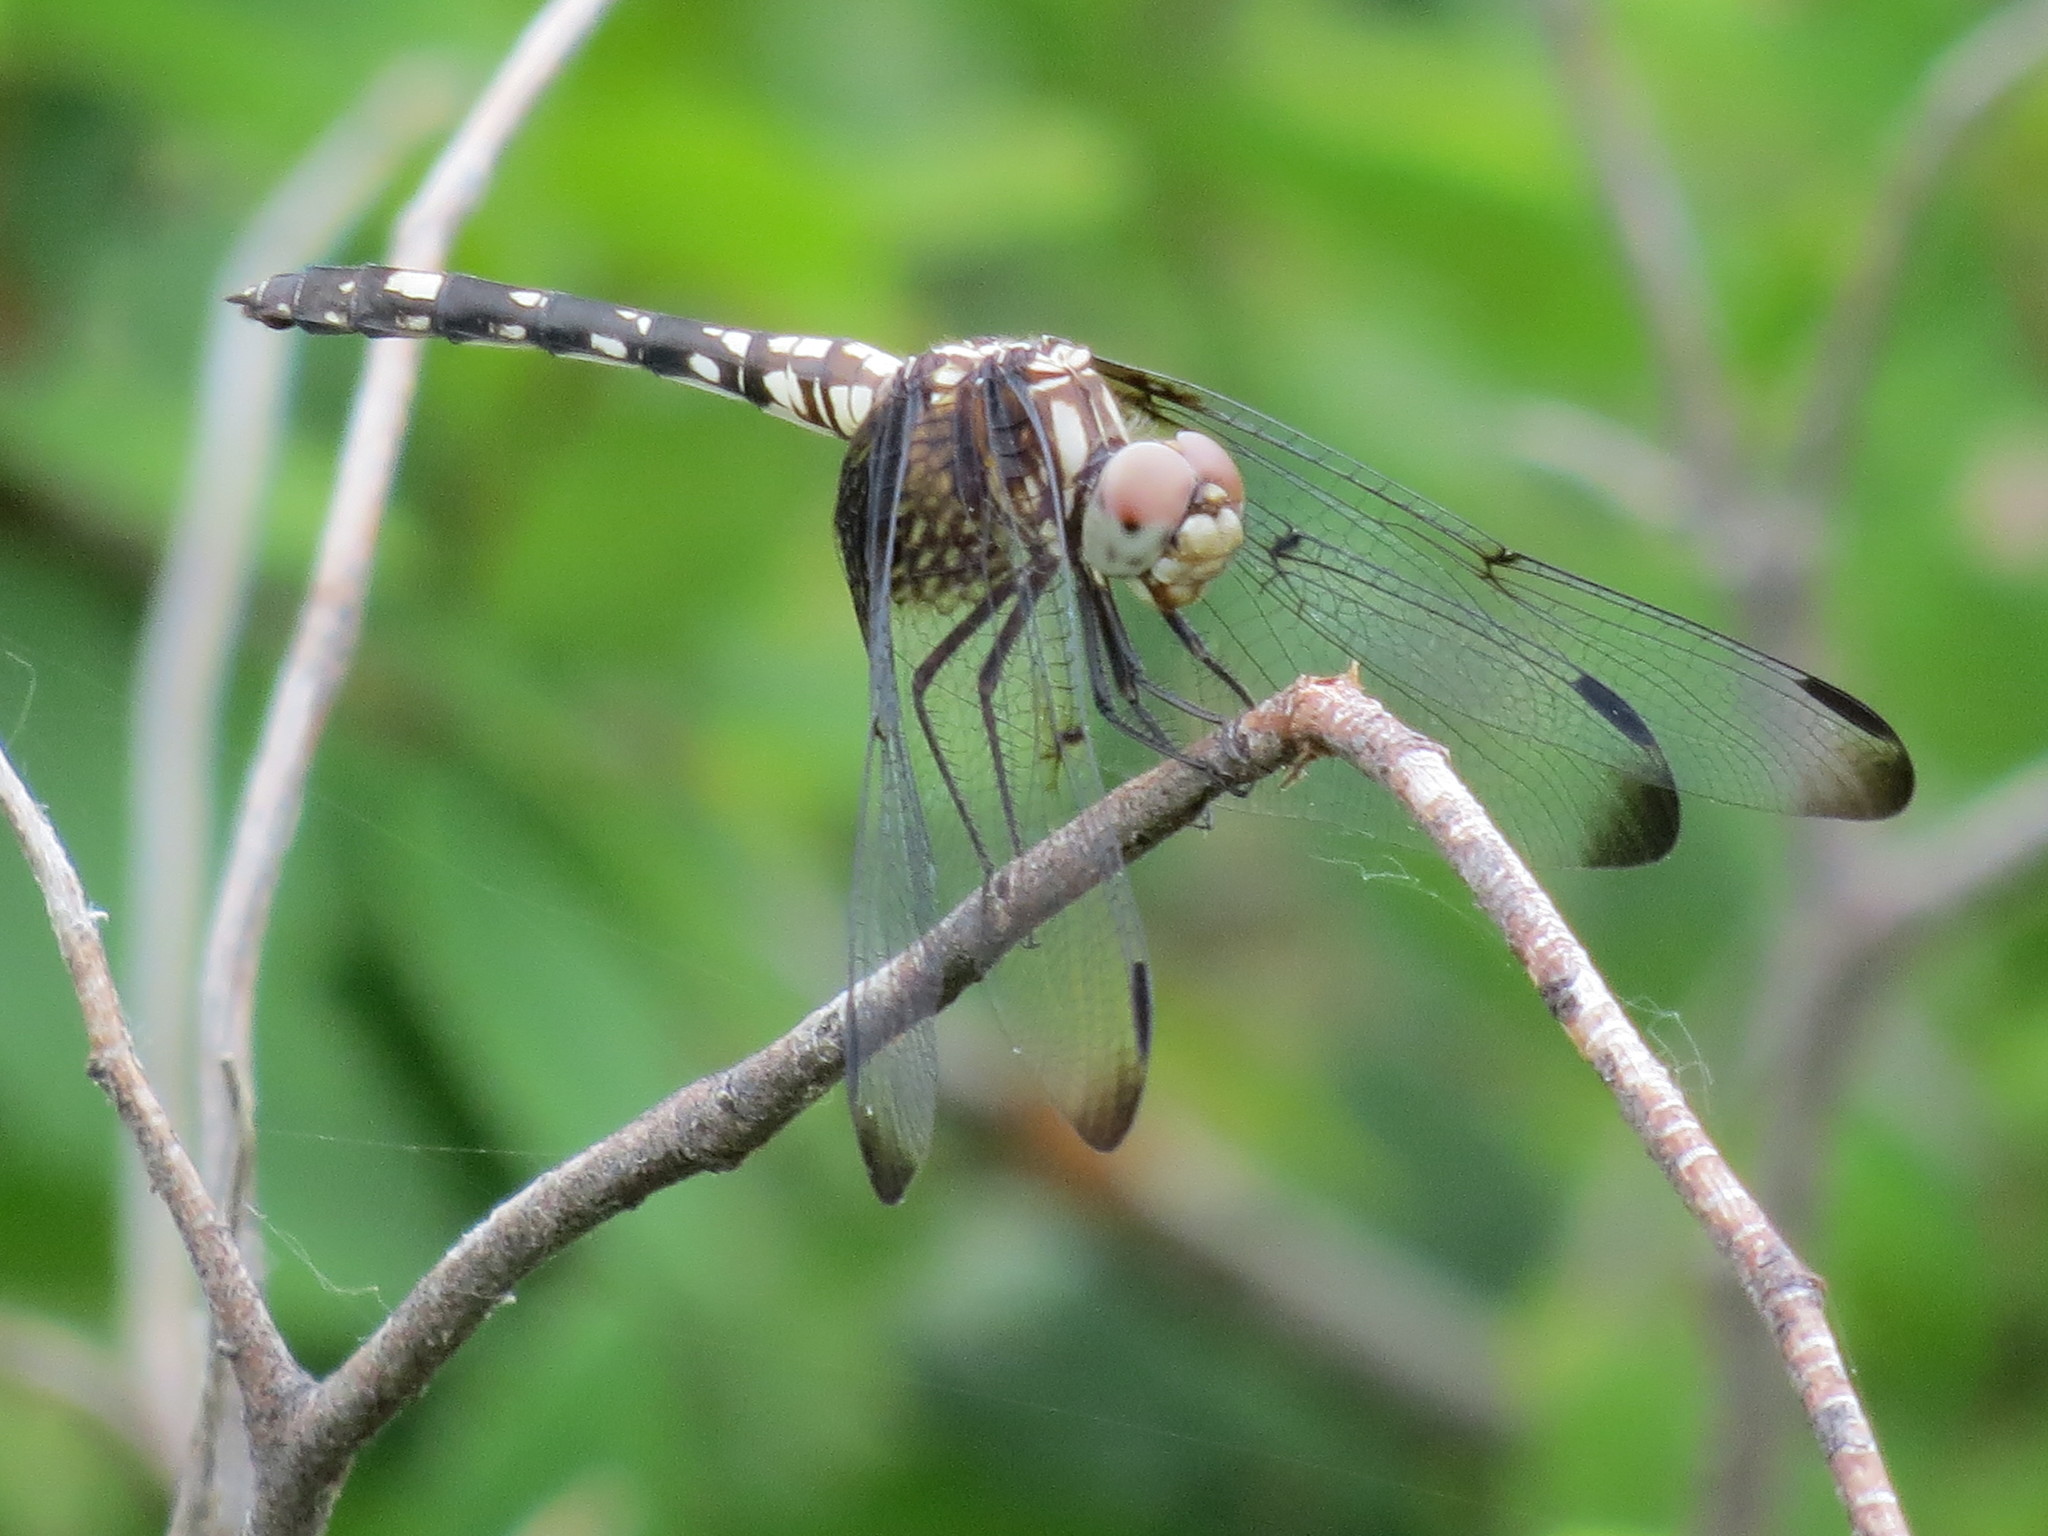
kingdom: Animalia
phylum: Arthropoda
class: Insecta
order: Odonata
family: Libellulidae
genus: Dythemis
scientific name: Dythemis fugax
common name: Checkered setwing
